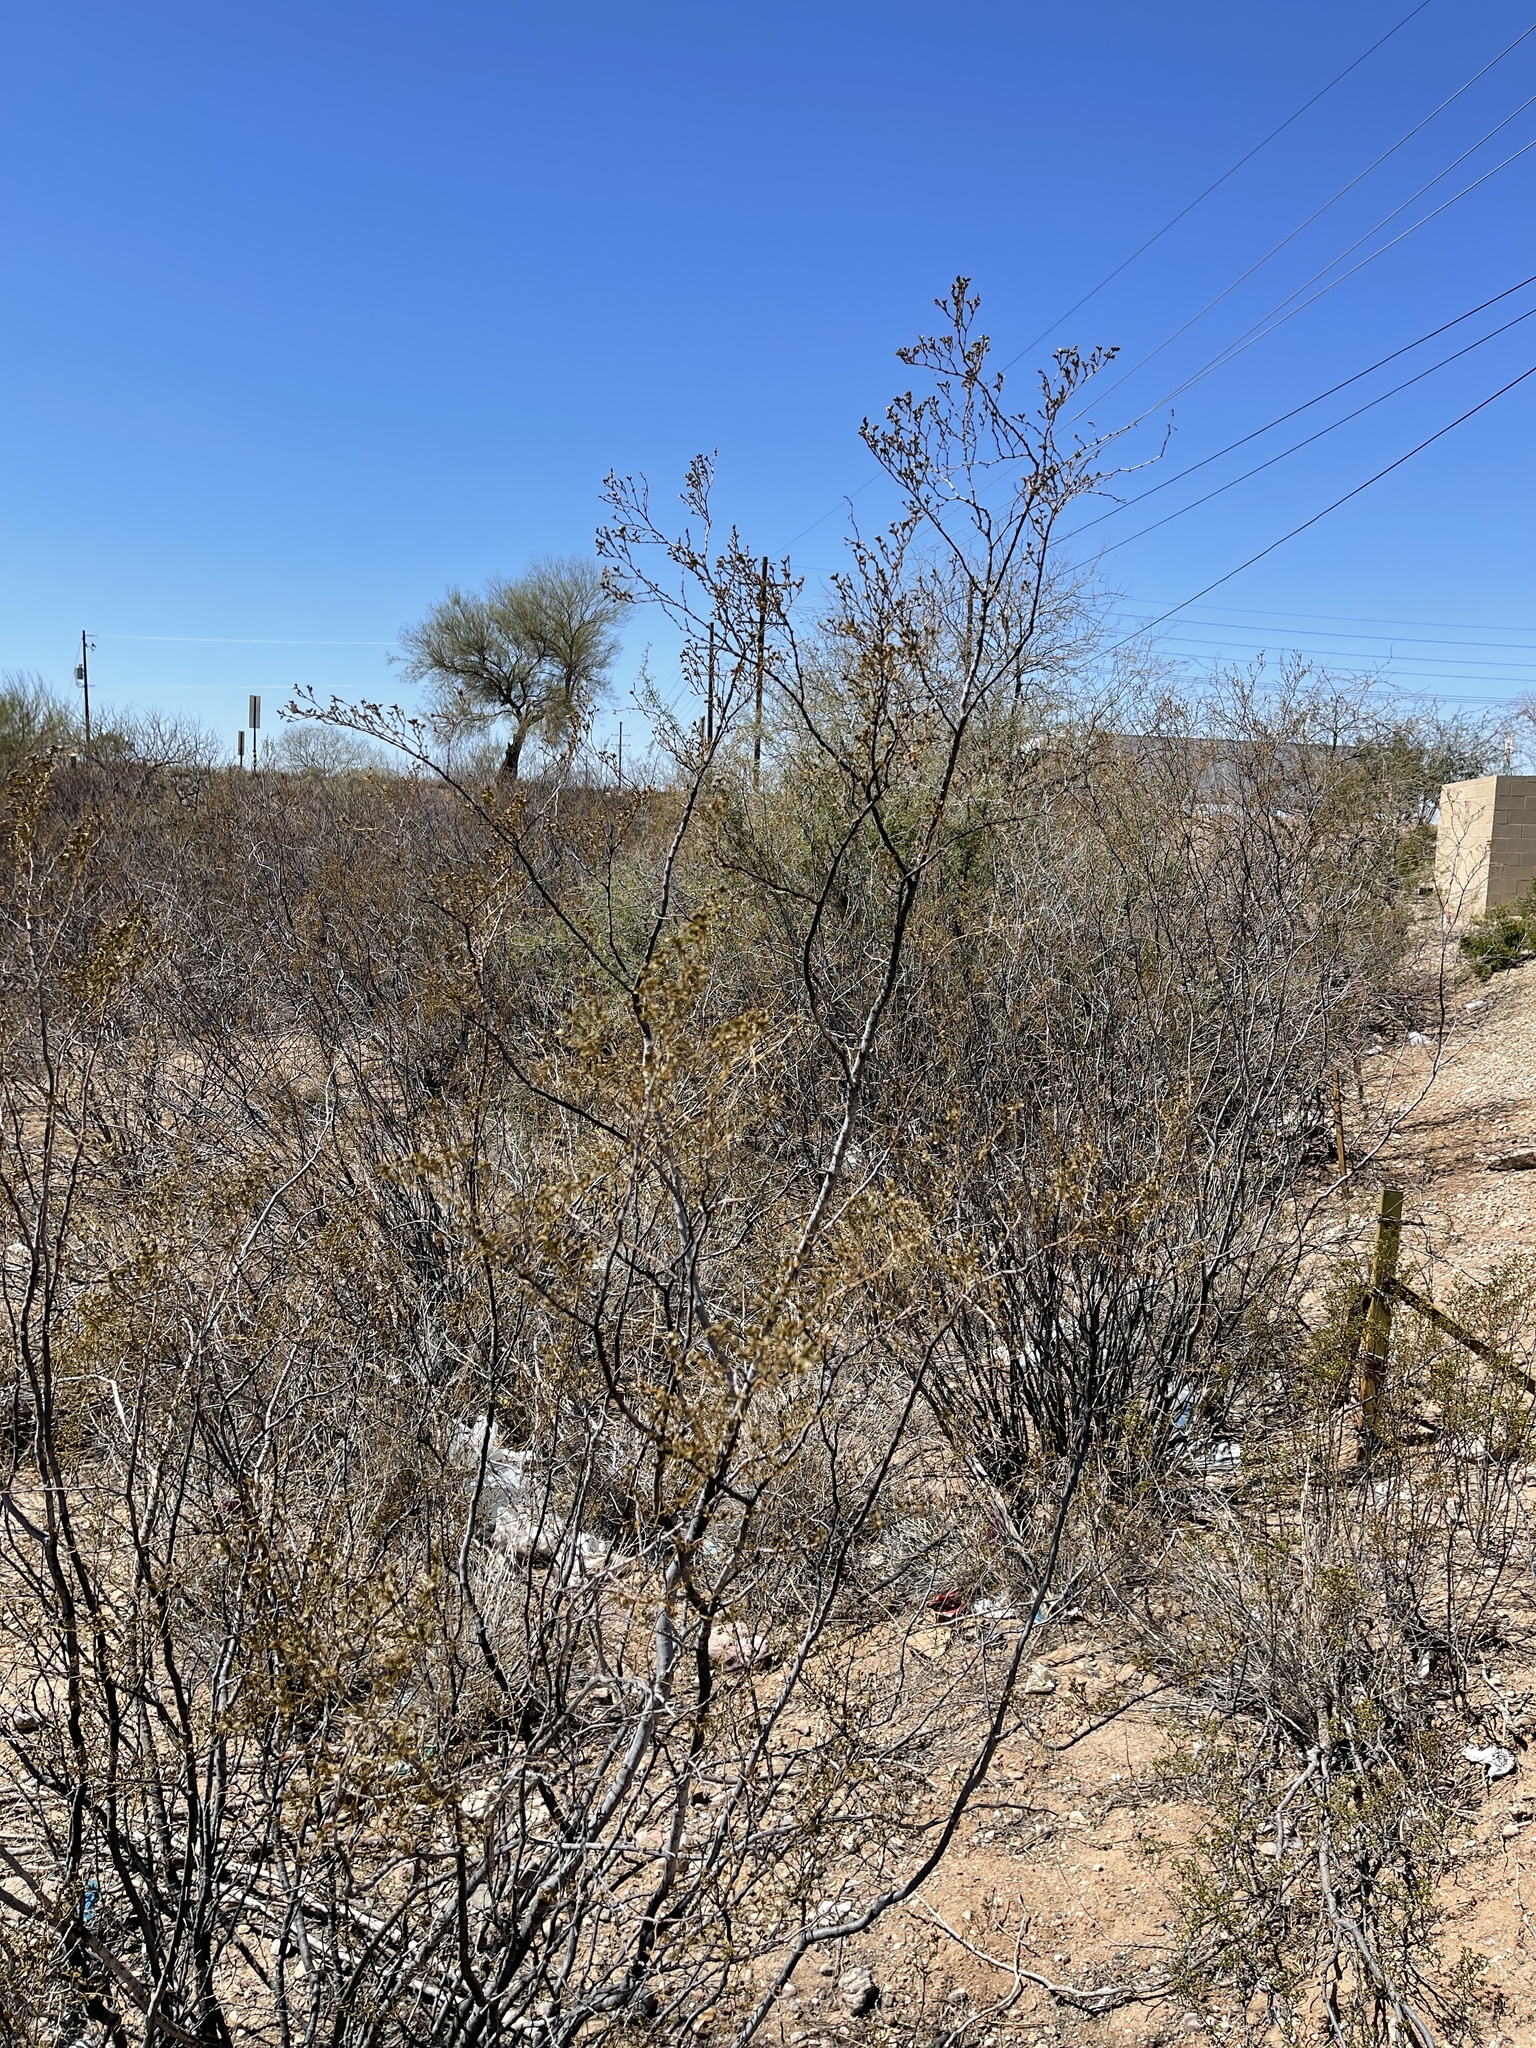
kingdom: Plantae
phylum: Tracheophyta
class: Magnoliopsida
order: Zygophyllales
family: Zygophyllaceae
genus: Larrea
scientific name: Larrea tridentata
